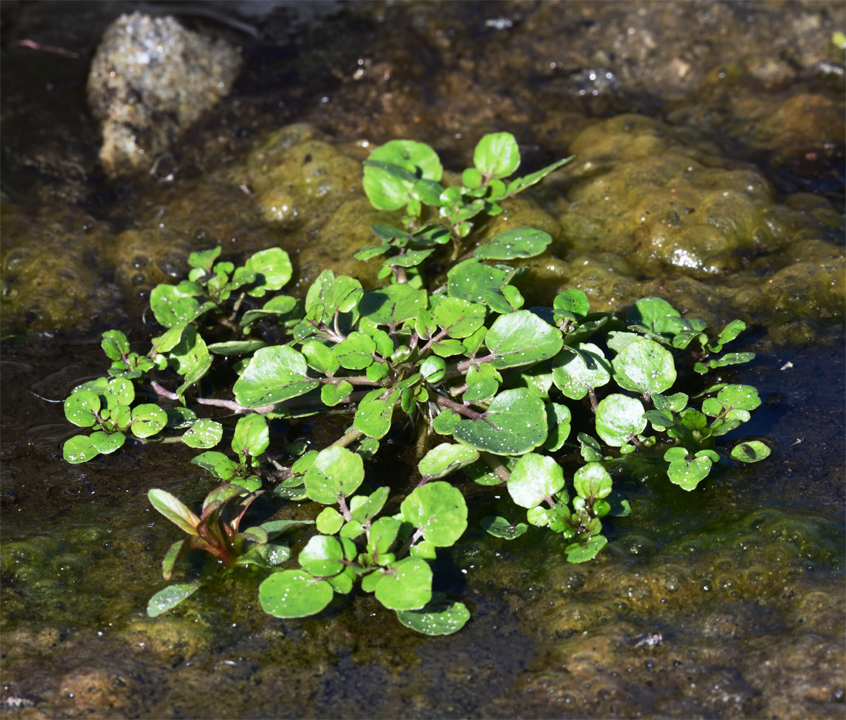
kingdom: Plantae
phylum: Tracheophyta
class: Magnoliopsida
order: Brassicales
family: Brassicaceae
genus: Nasturtium
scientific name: Nasturtium officinale
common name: Watercress
